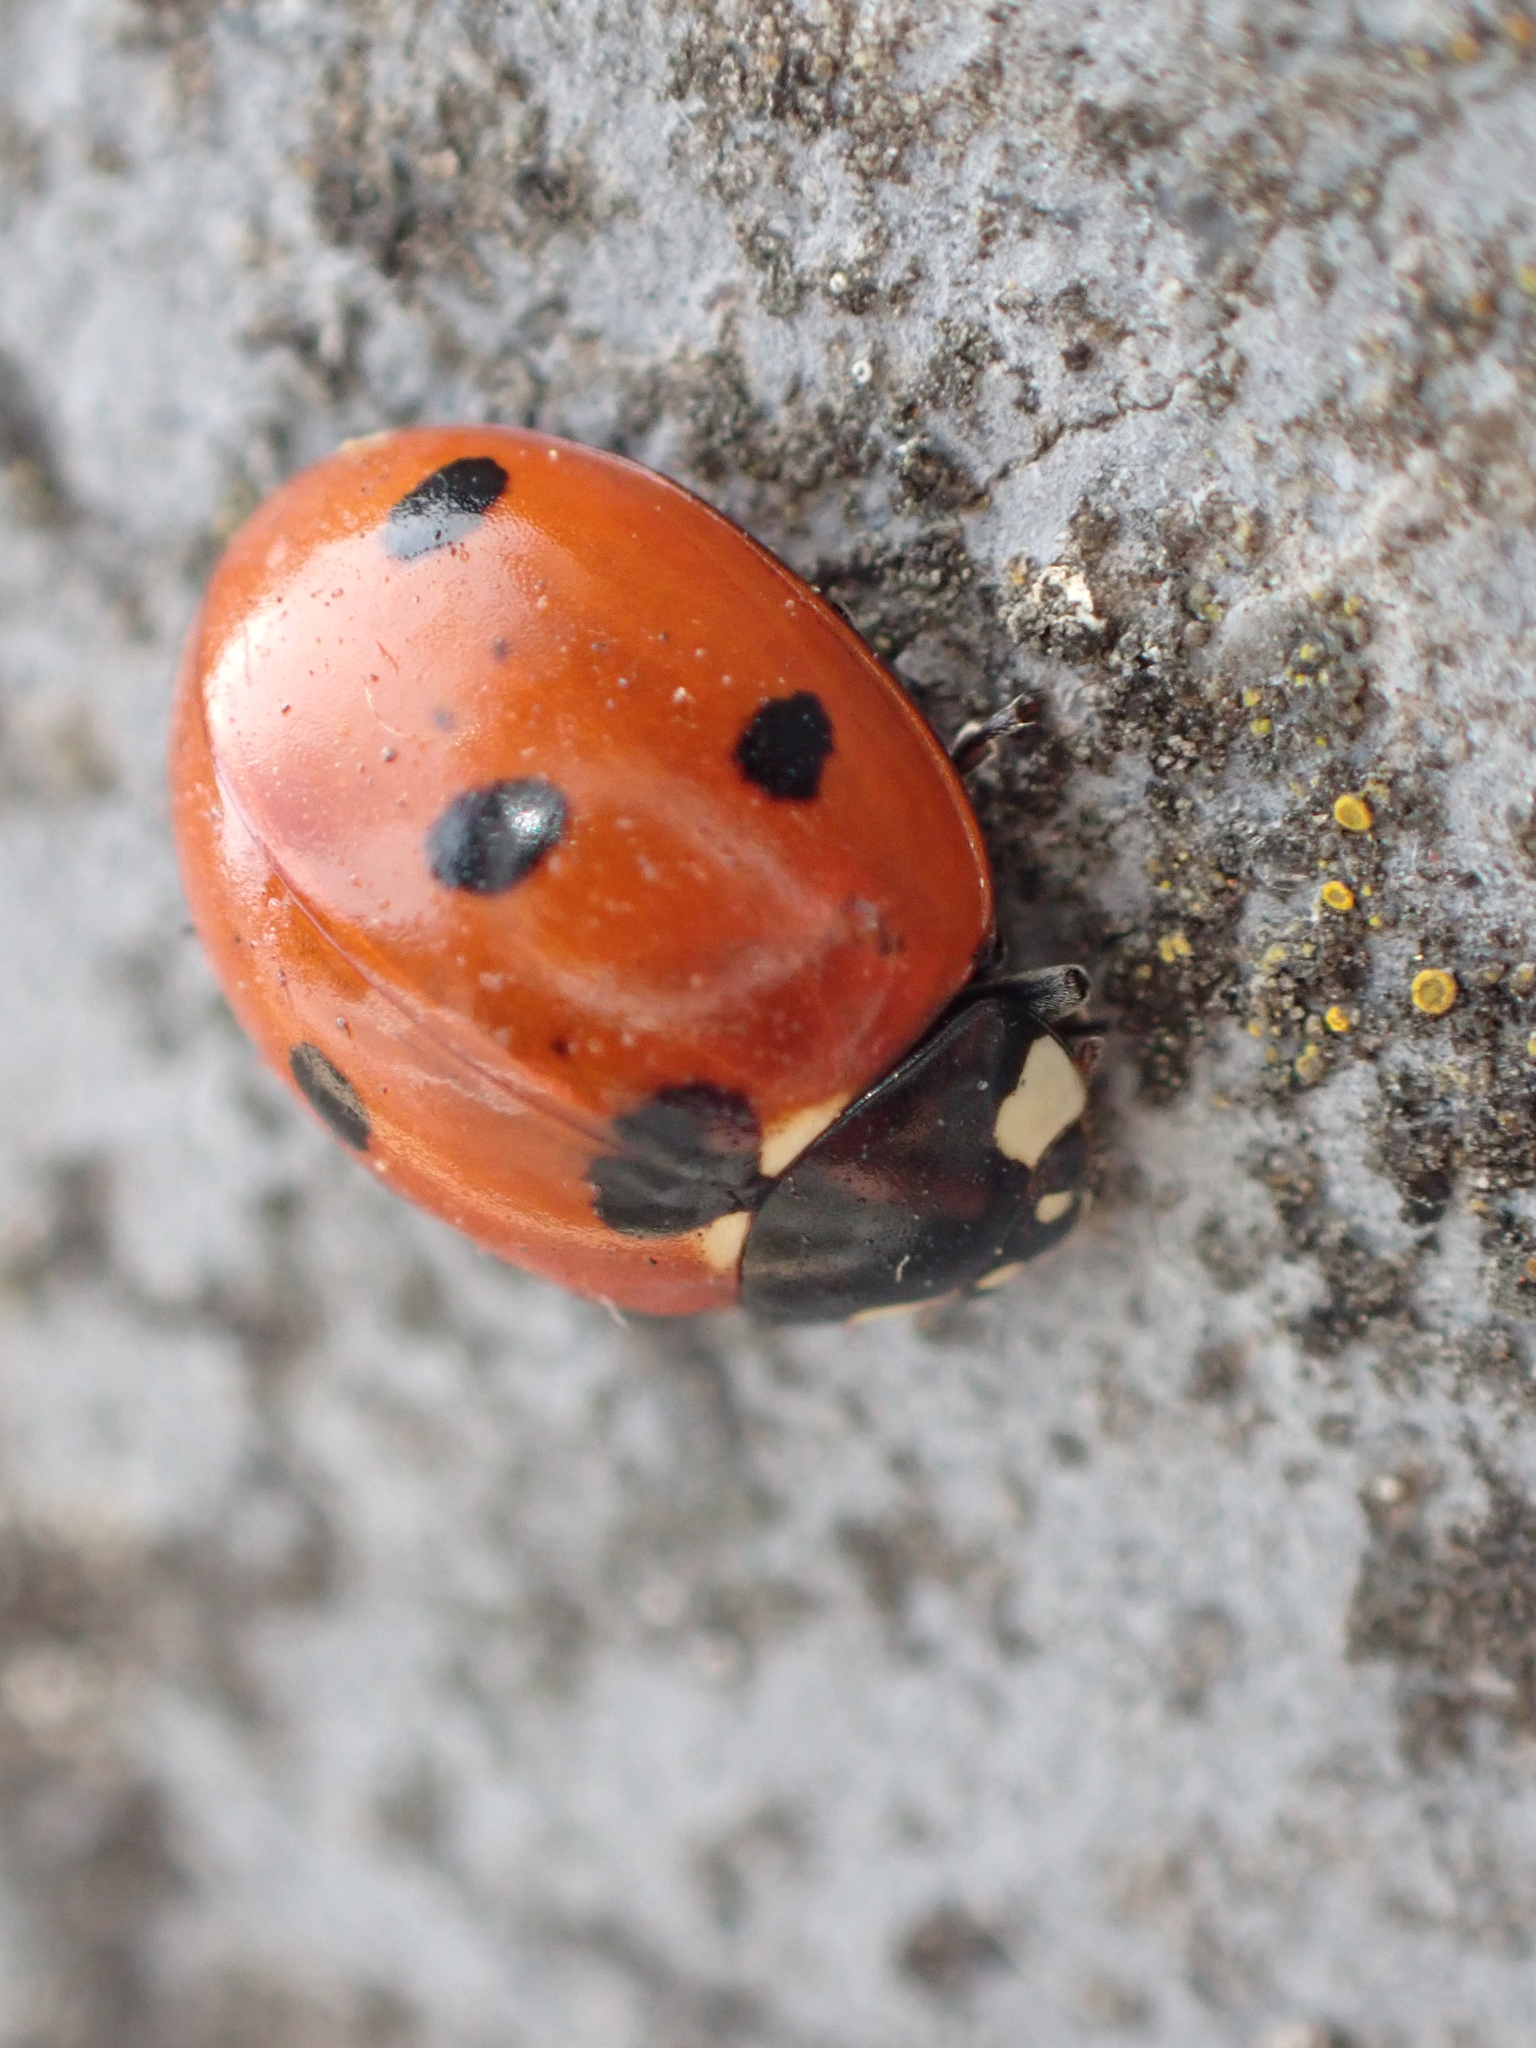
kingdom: Animalia
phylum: Arthropoda
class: Insecta
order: Coleoptera
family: Coccinellidae
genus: Coccinella
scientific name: Coccinella septempunctata
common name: Sevenspotted lady beetle
